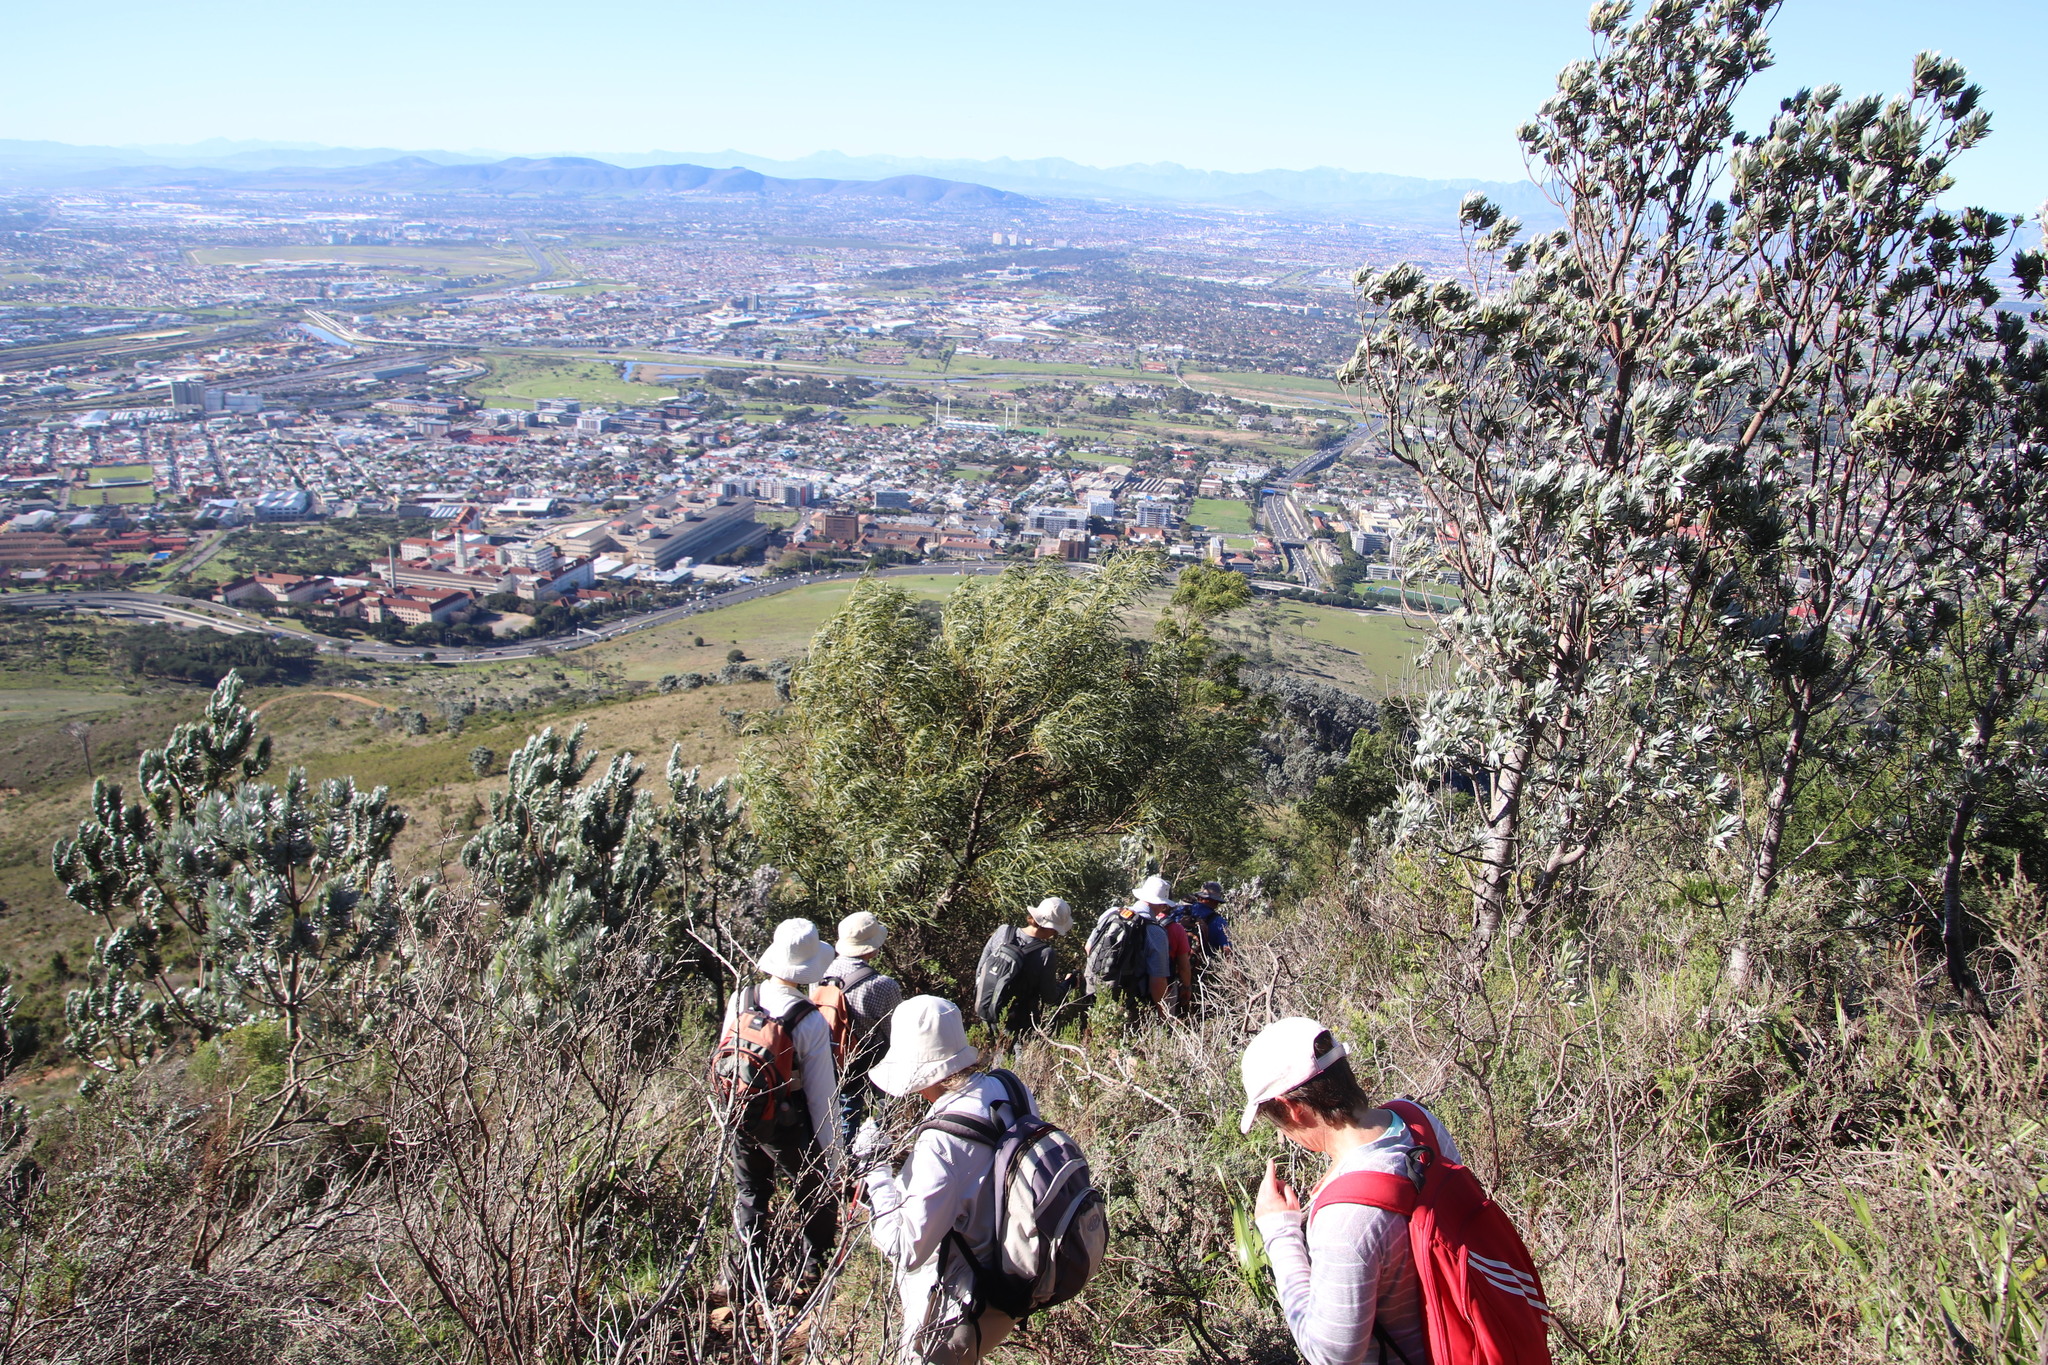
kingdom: Plantae
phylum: Tracheophyta
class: Magnoliopsida
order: Fabales
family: Fabaceae
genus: Acacia
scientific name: Acacia saligna
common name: Orange wattle
